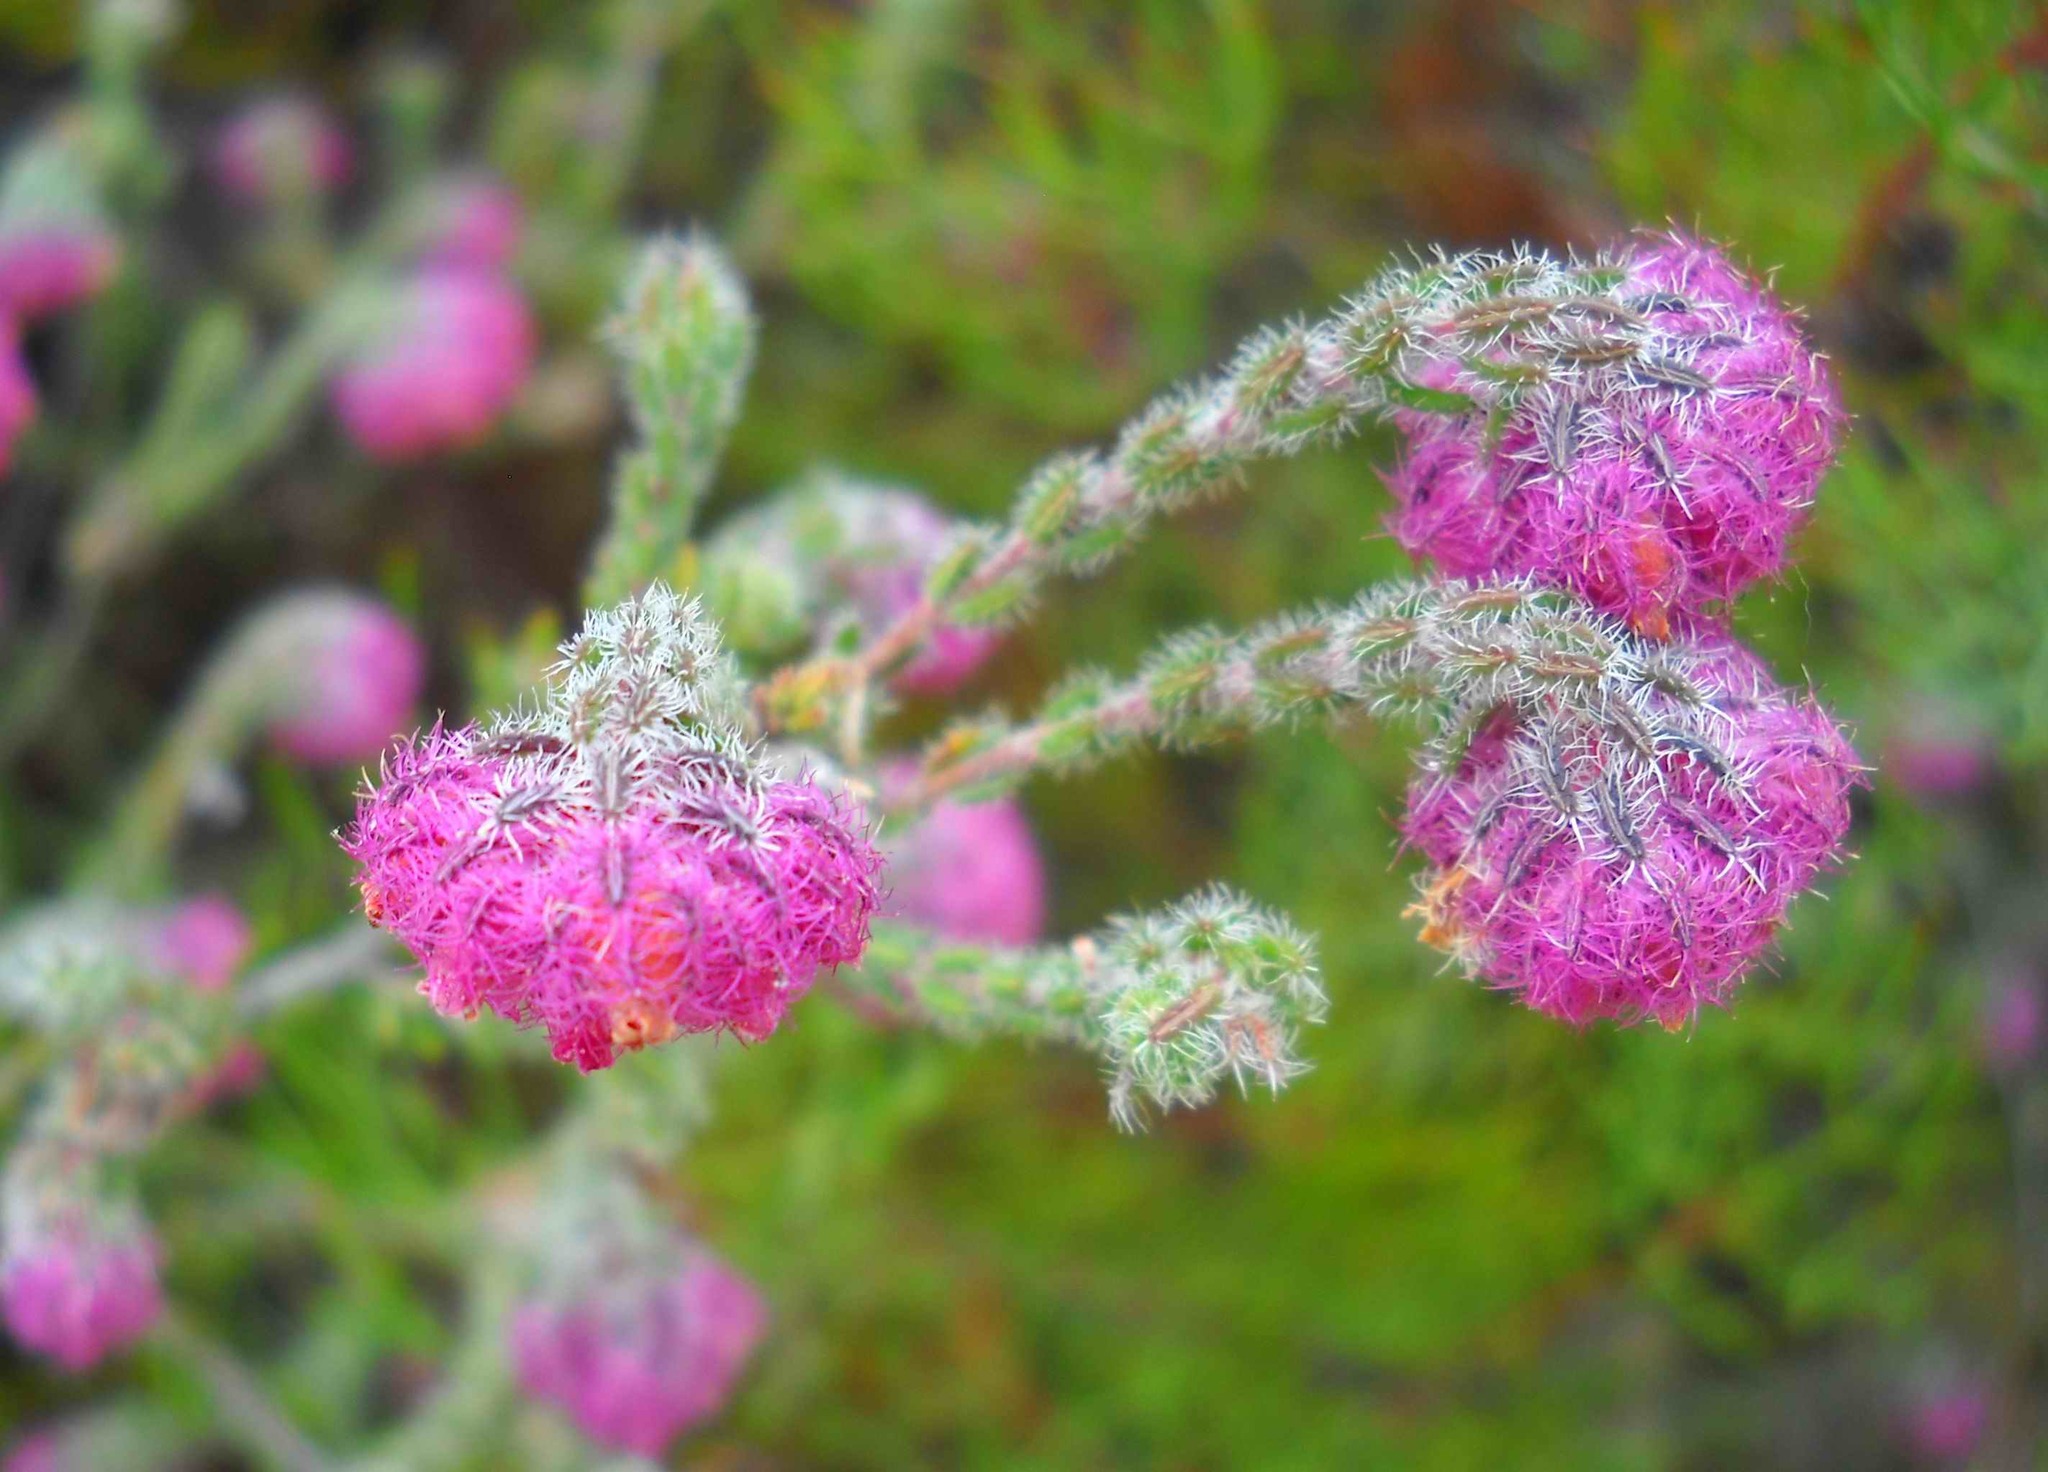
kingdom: Plantae
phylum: Tracheophyta
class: Magnoliopsida
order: Ericales
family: Ericaceae
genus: Erica
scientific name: Erica solandra
